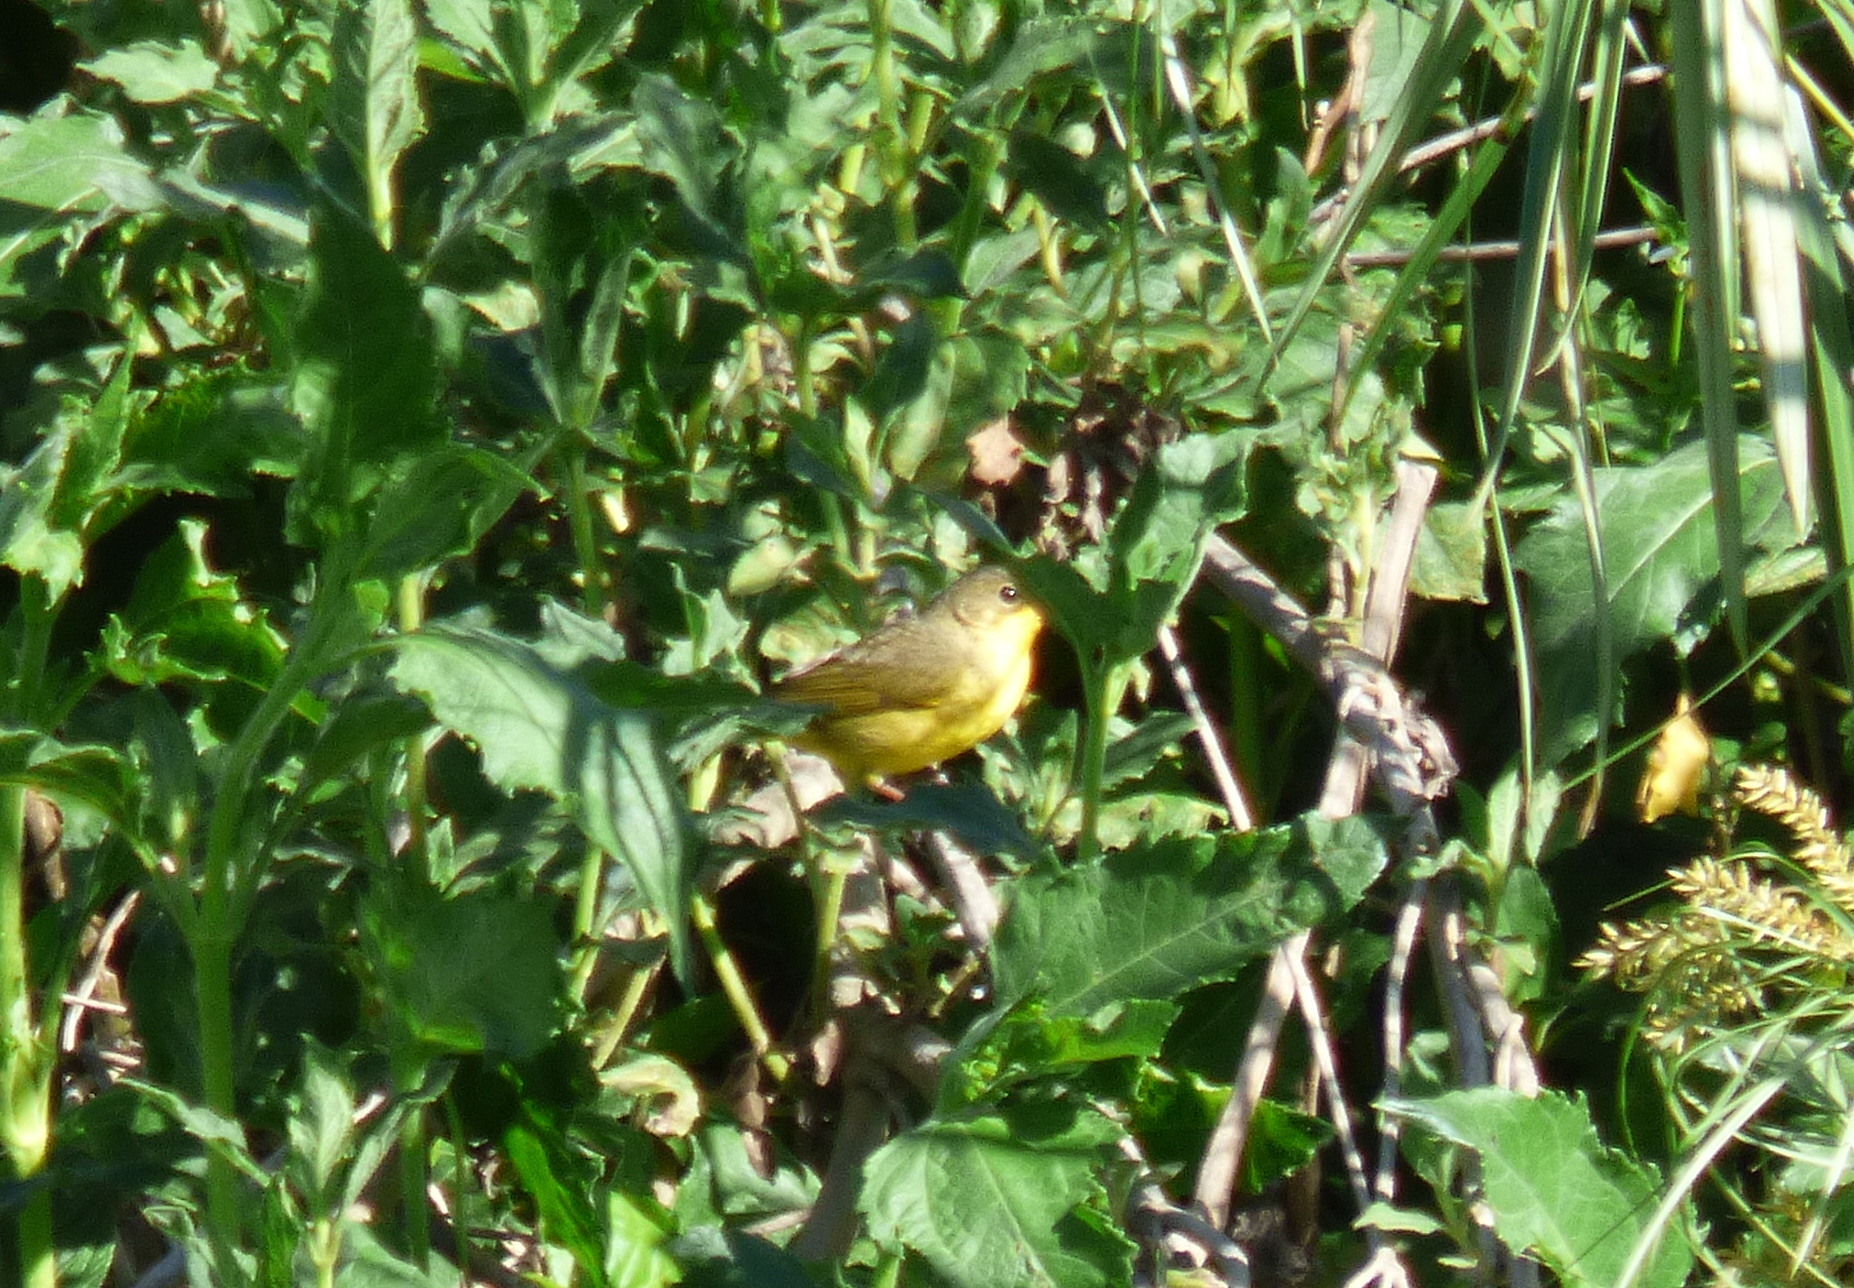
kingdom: Animalia
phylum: Chordata
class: Aves
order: Passeriformes
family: Parulidae
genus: Geothlypis
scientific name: Geothlypis velata
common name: Southern yellowthroat
